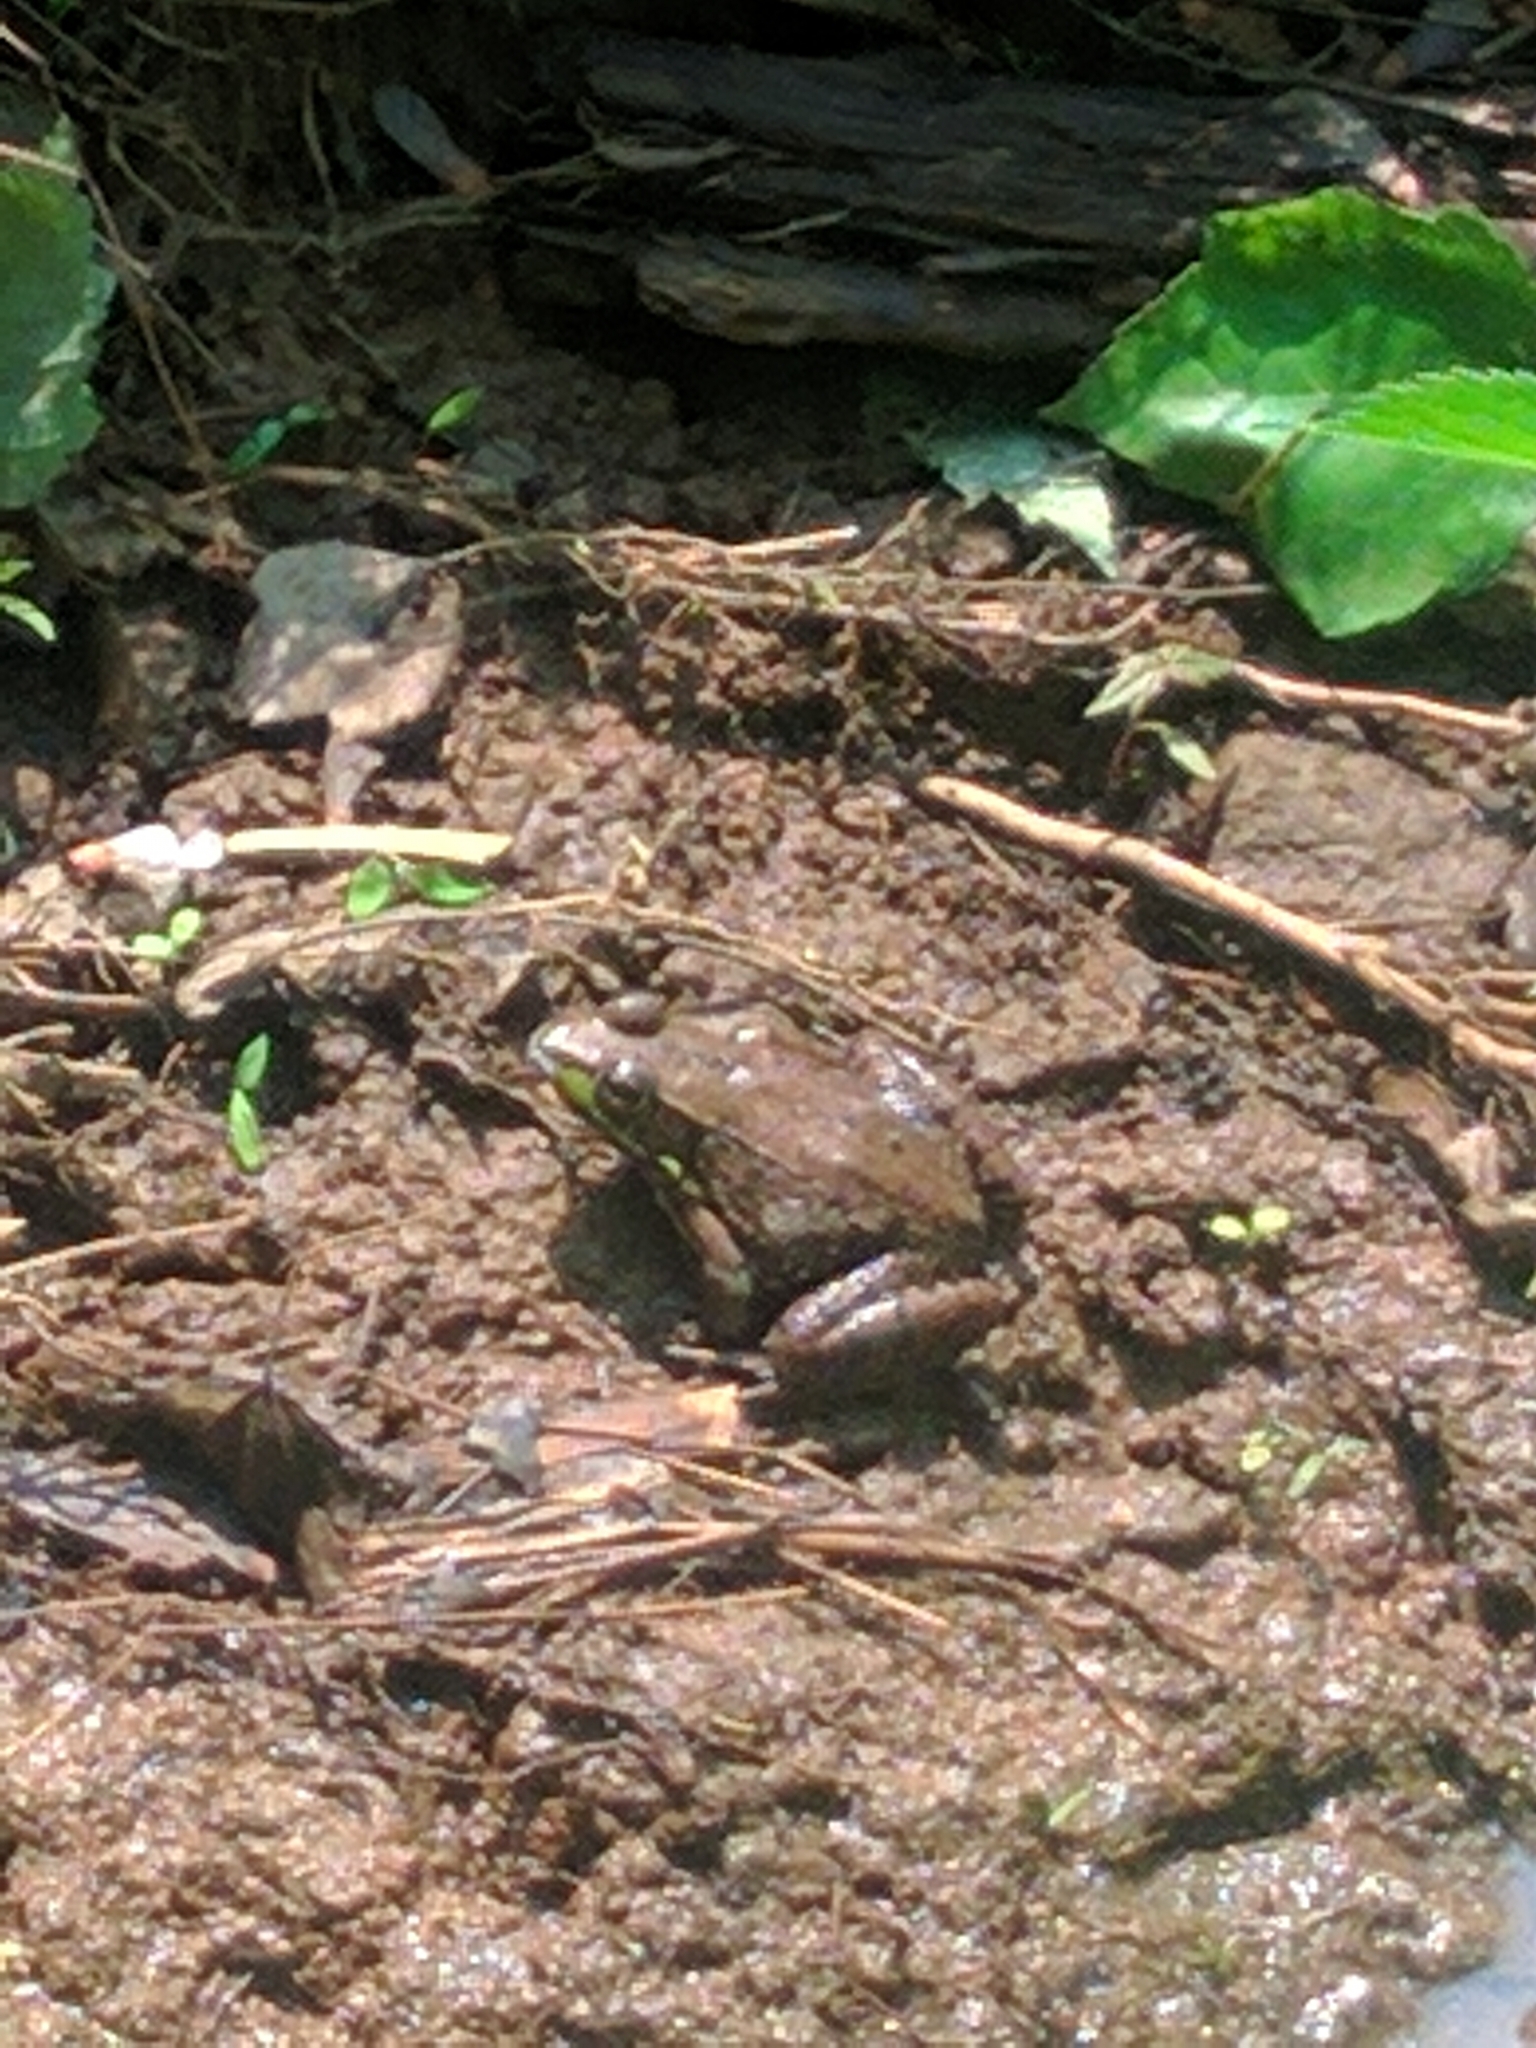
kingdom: Animalia
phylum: Chordata
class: Amphibia
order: Anura
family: Ranidae
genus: Lithobates
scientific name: Lithobates clamitans
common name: Green frog
